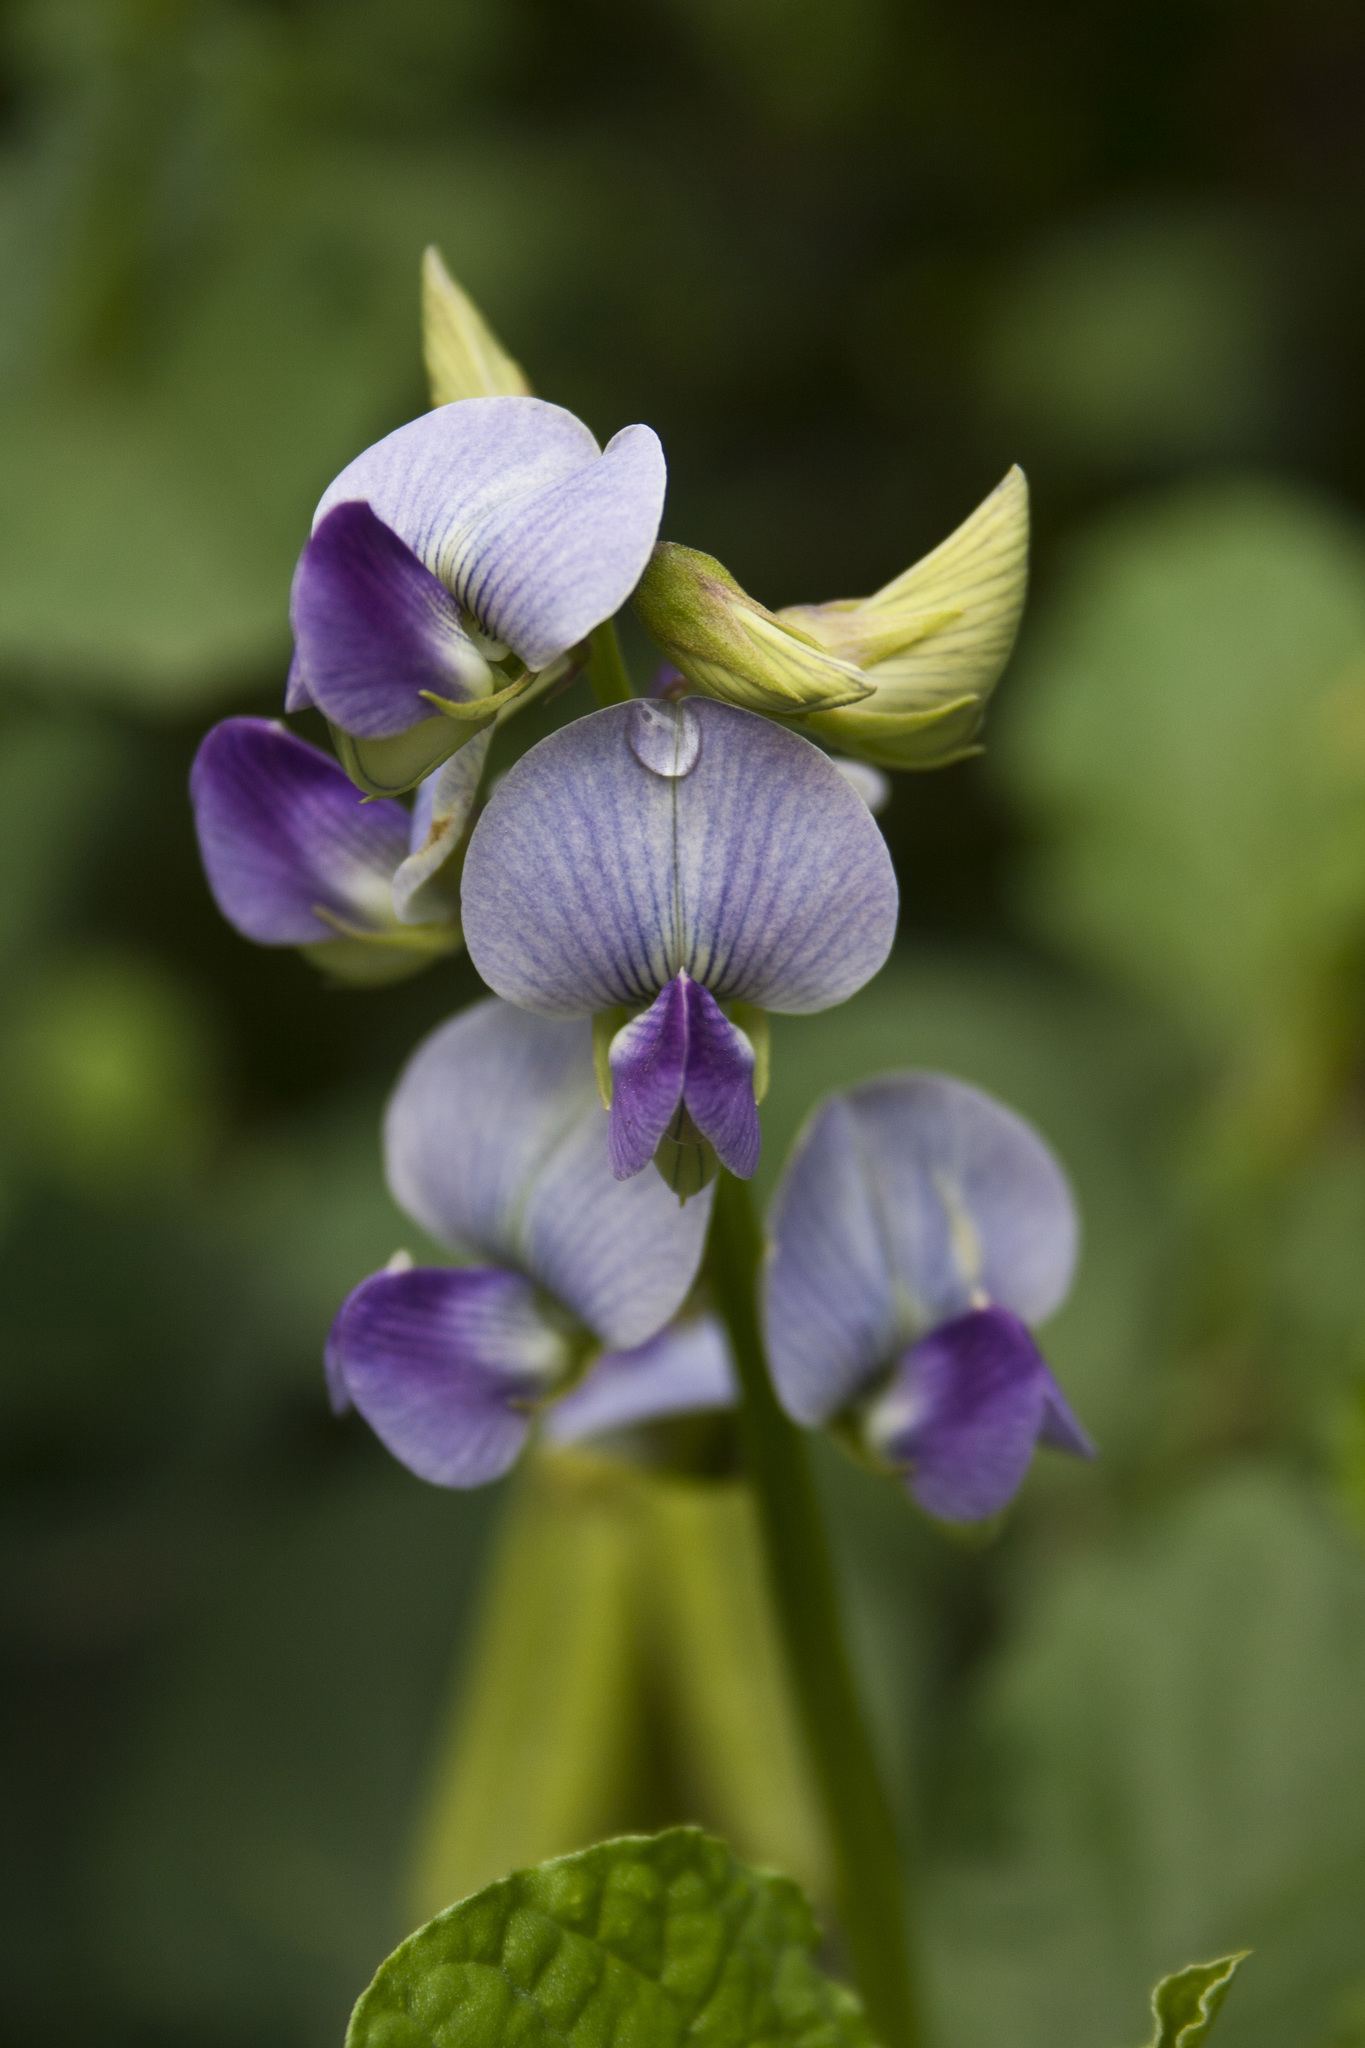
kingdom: Plantae
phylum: Tracheophyta
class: Magnoliopsida
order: Fabales
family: Fabaceae
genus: Crotalaria
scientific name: Crotalaria verrucosa
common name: Blue rattlesnake
